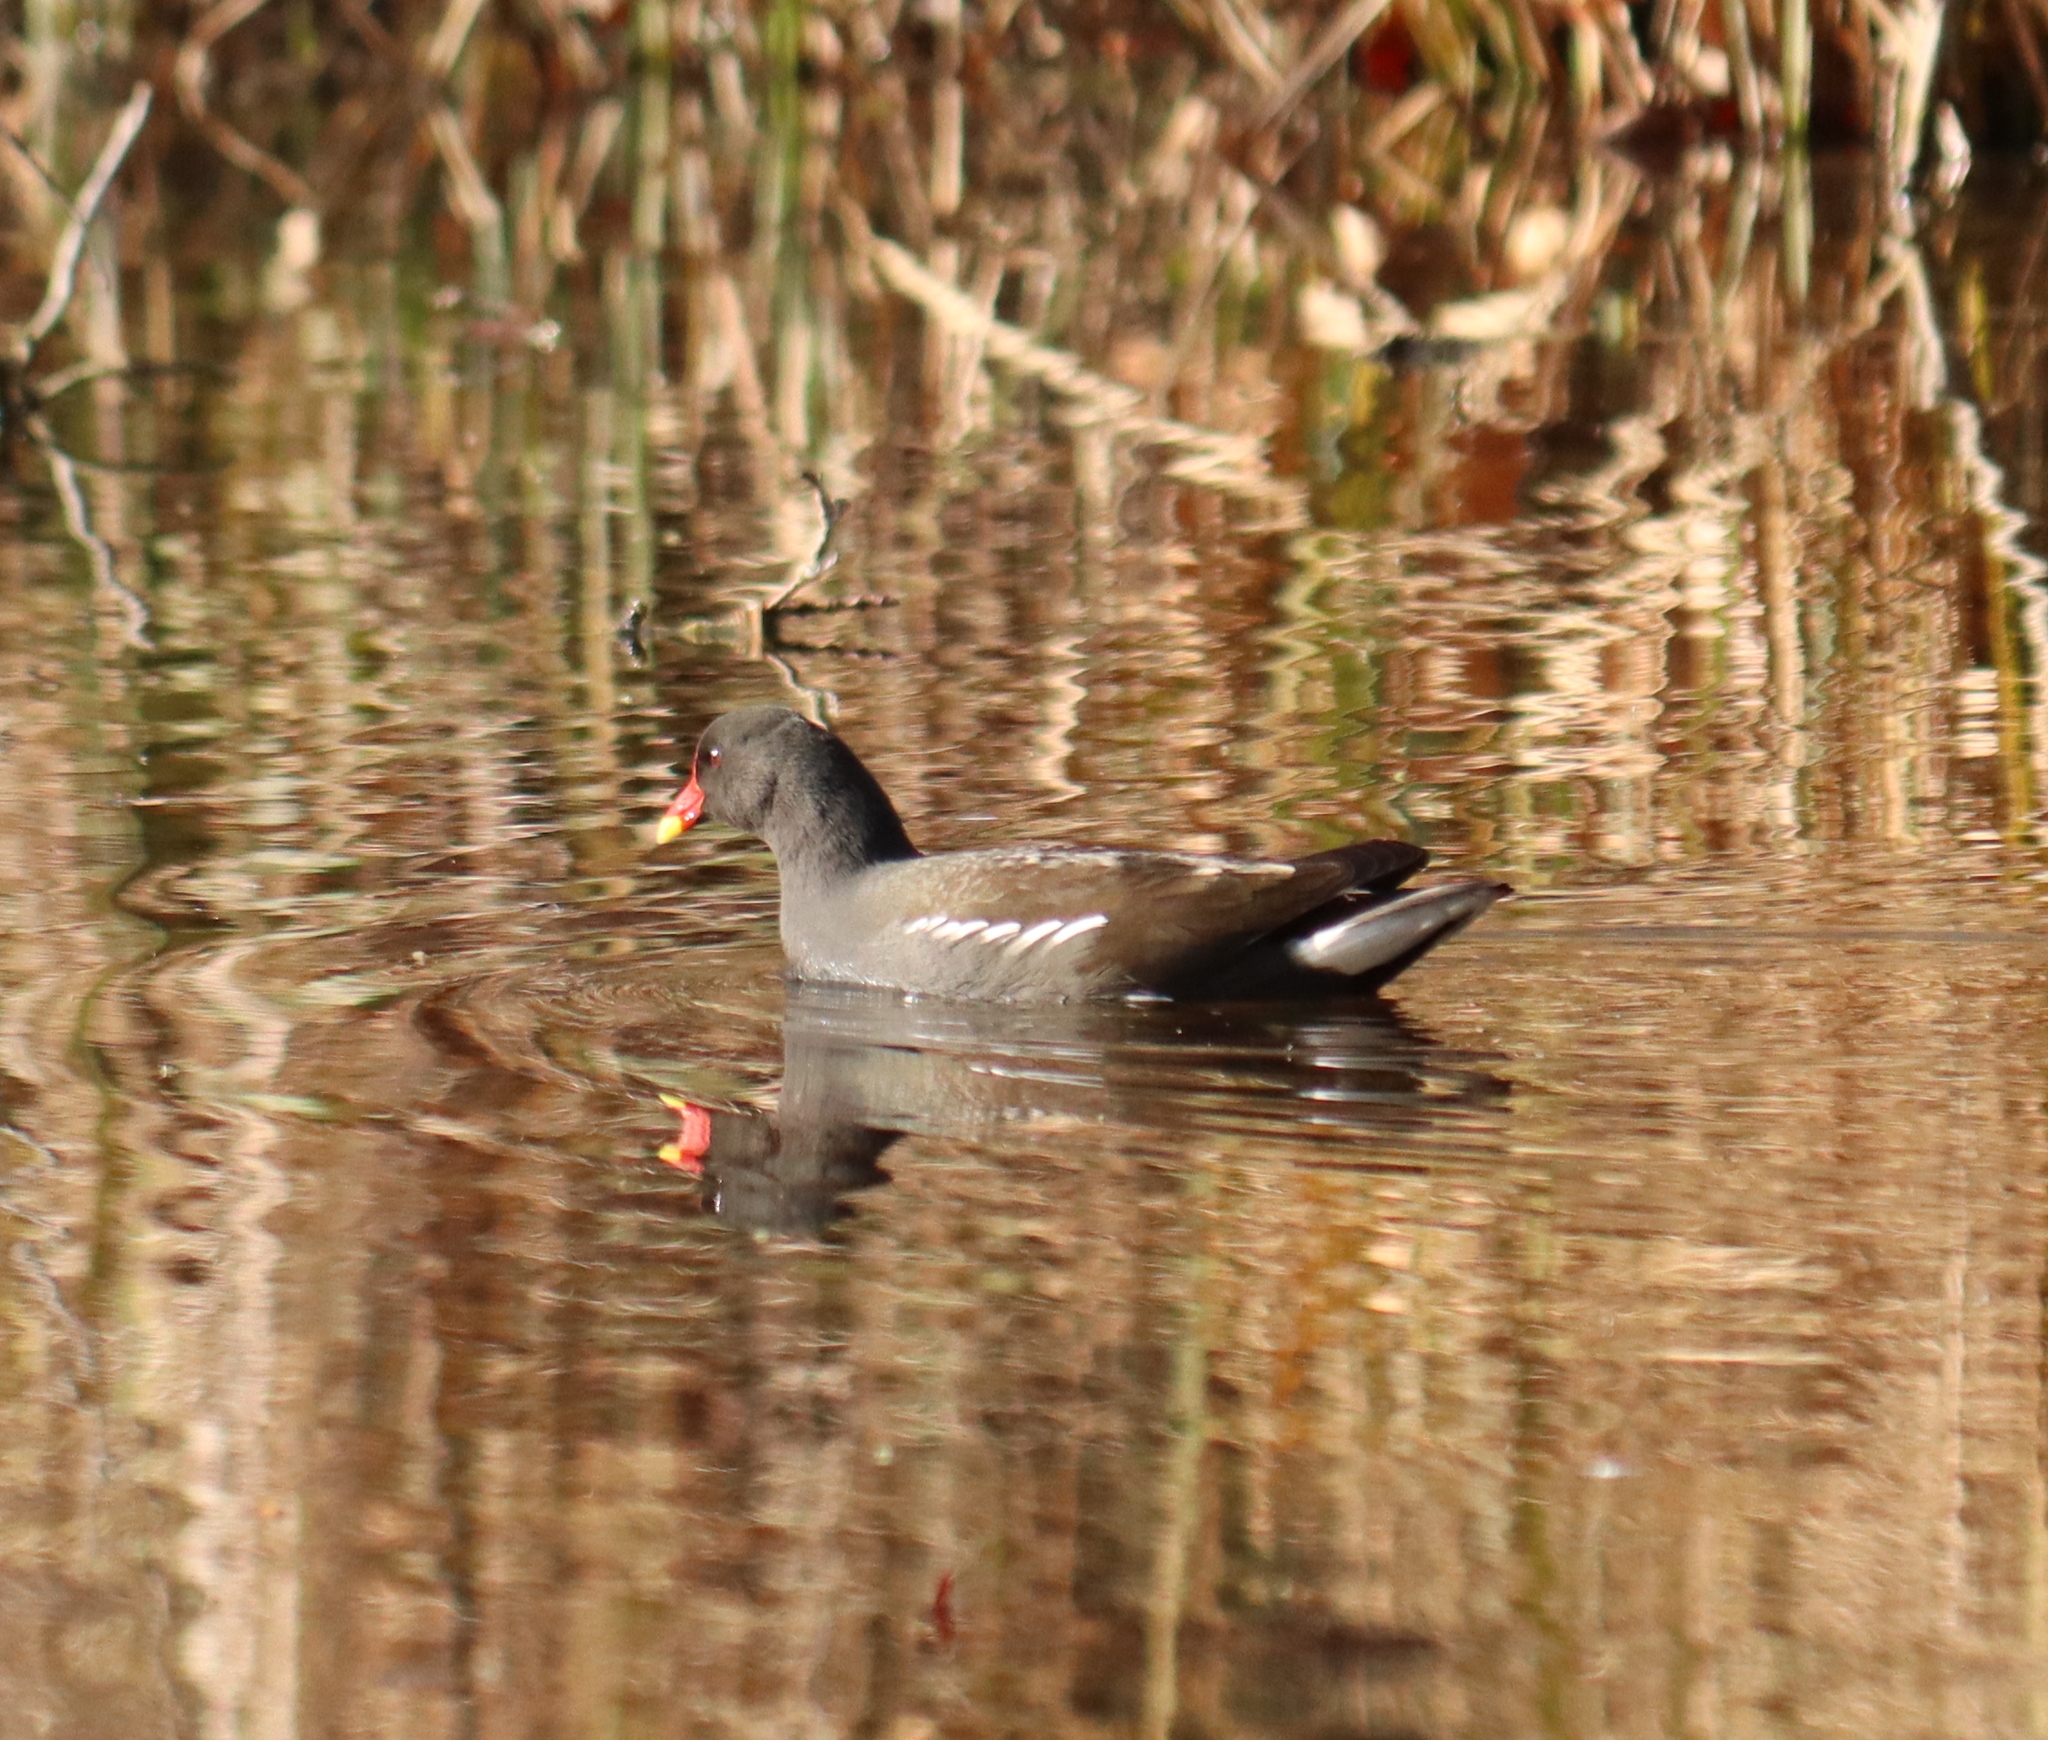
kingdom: Animalia
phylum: Chordata
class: Aves
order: Gruiformes
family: Rallidae
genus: Gallinula
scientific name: Gallinula chloropus
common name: Common moorhen
